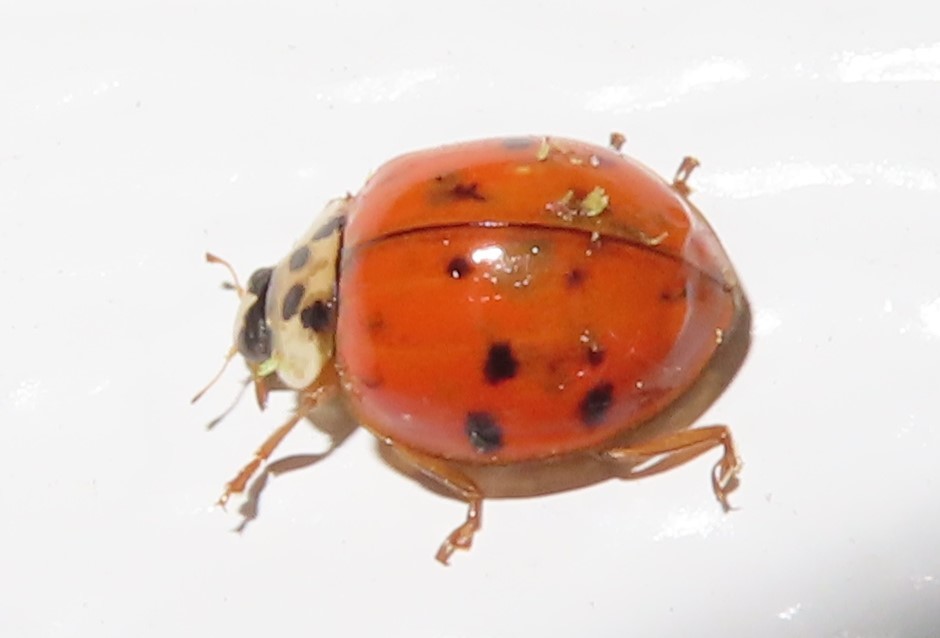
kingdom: Fungi
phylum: Ascomycota
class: Laboulbeniomycetes
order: Laboulbeniales
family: Laboulbeniaceae
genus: Hesperomyces
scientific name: Hesperomyces harmoniae
